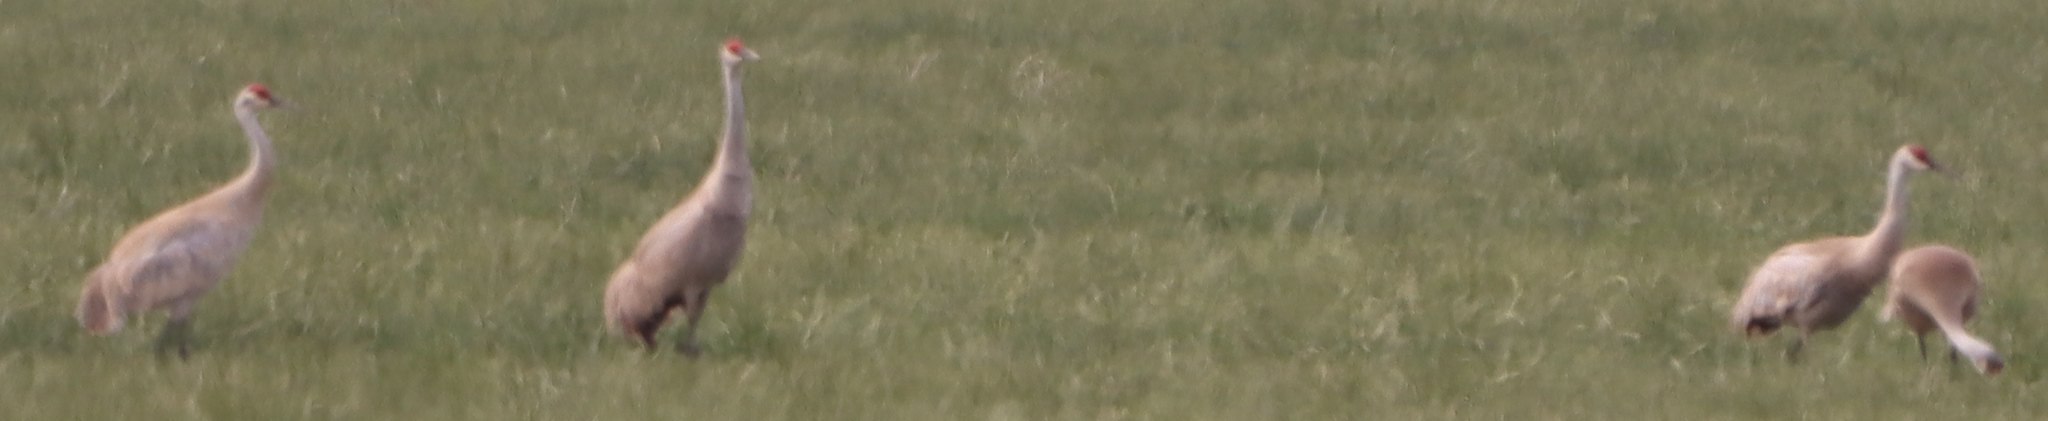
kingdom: Animalia
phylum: Chordata
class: Aves
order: Gruiformes
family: Gruidae
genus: Grus
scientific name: Grus canadensis
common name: Sandhill crane
